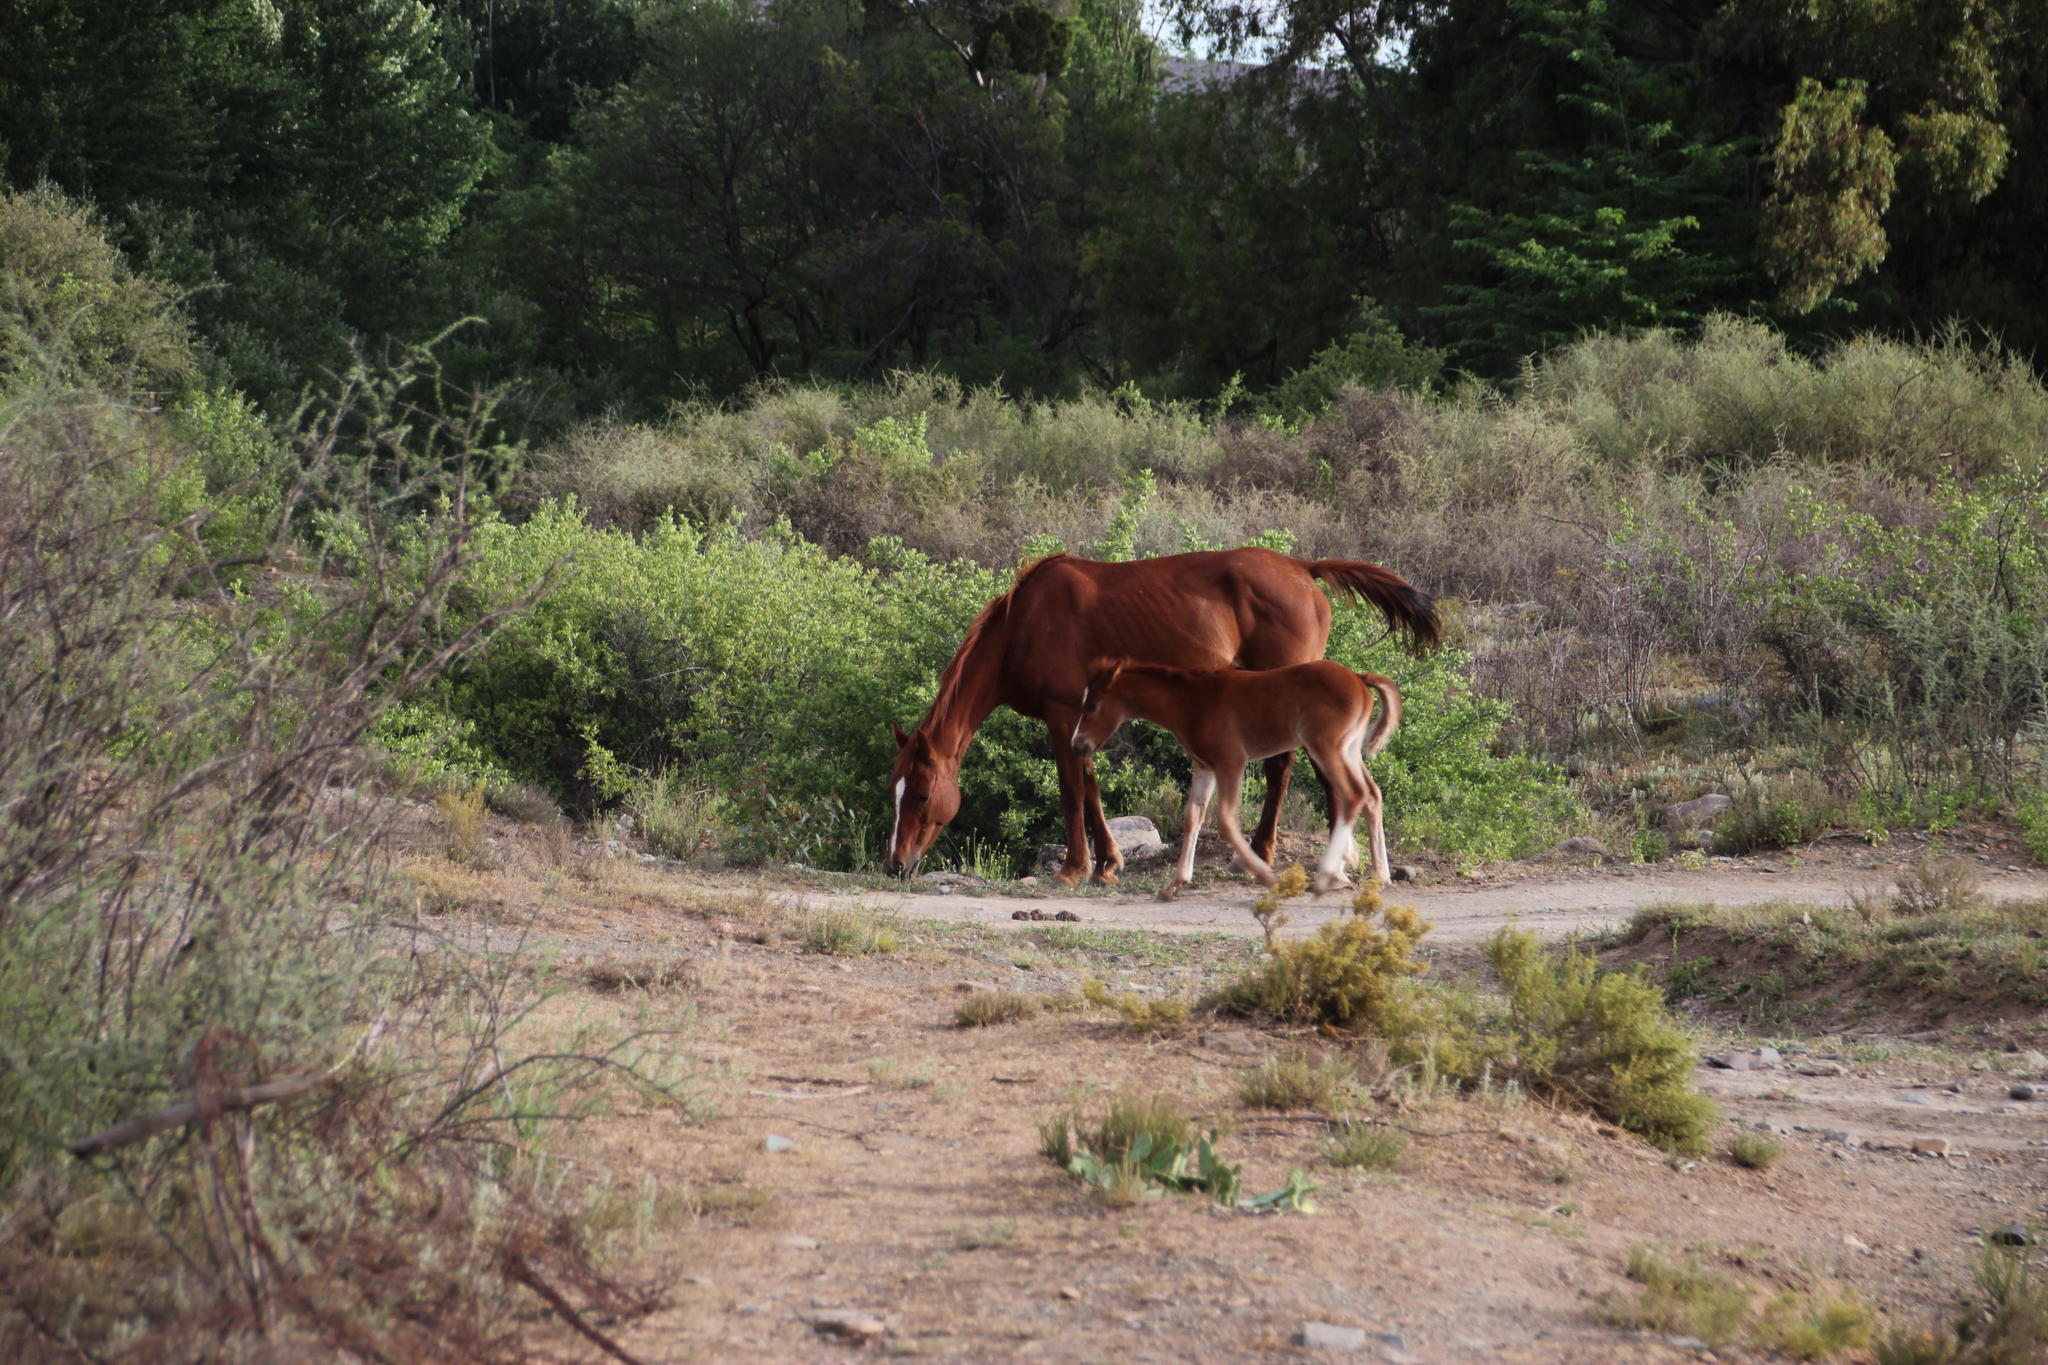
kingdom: Animalia
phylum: Chordata
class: Mammalia
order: Perissodactyla
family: Equidae
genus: Equus
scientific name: Equus caballus
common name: Horse
